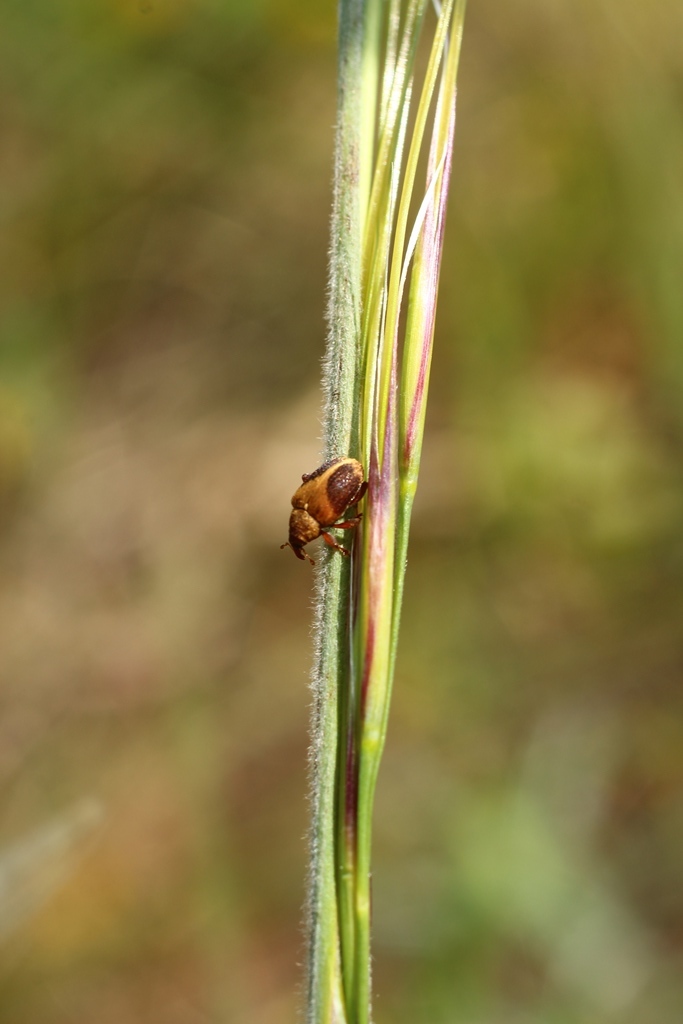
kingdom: Animalia
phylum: Arthropoda
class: Insecta
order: Coleoptera
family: Curculionidae
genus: Lignyodes
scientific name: Lignyodes enucleator
